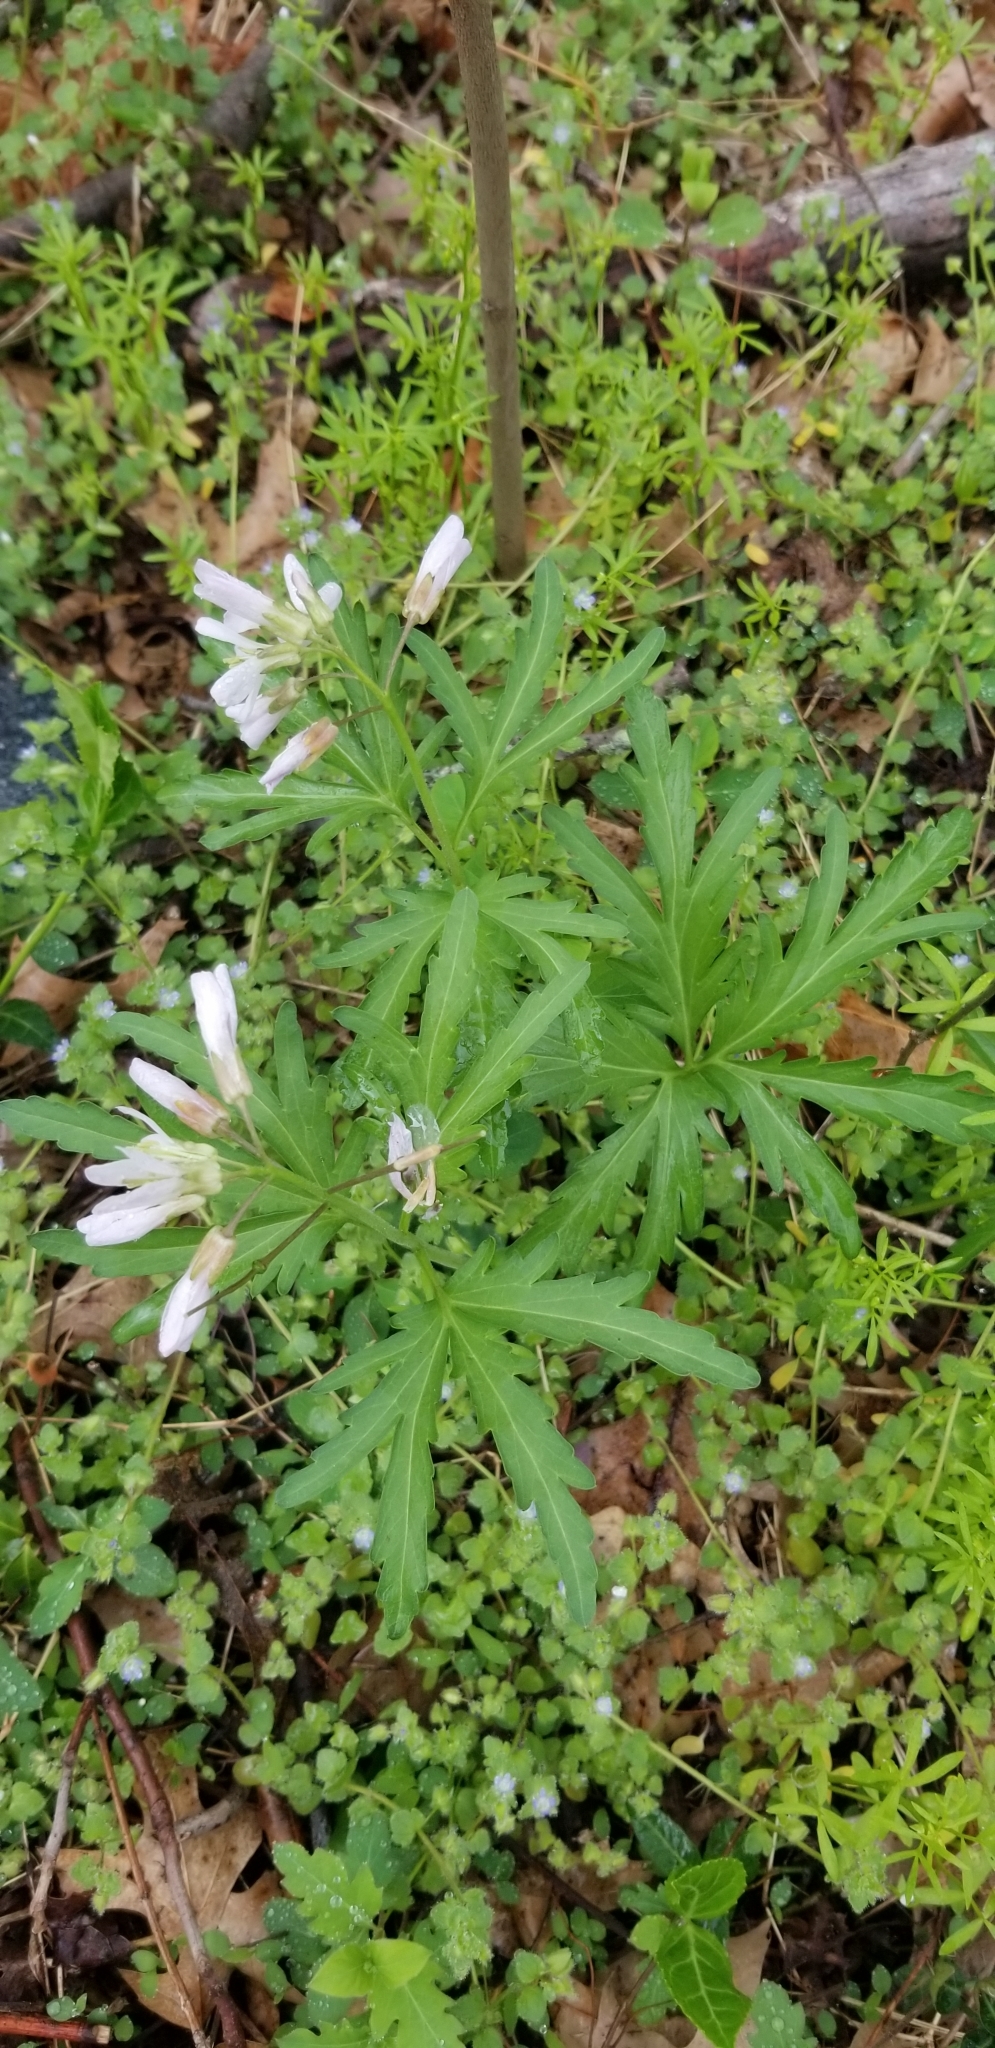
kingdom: Plantae
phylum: Tracheophyta
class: Magnoliopsida
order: Brassicales
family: Brassicaceae
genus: Cardamine
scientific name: Cardamine concatenata
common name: Cut-leaf toothcup
